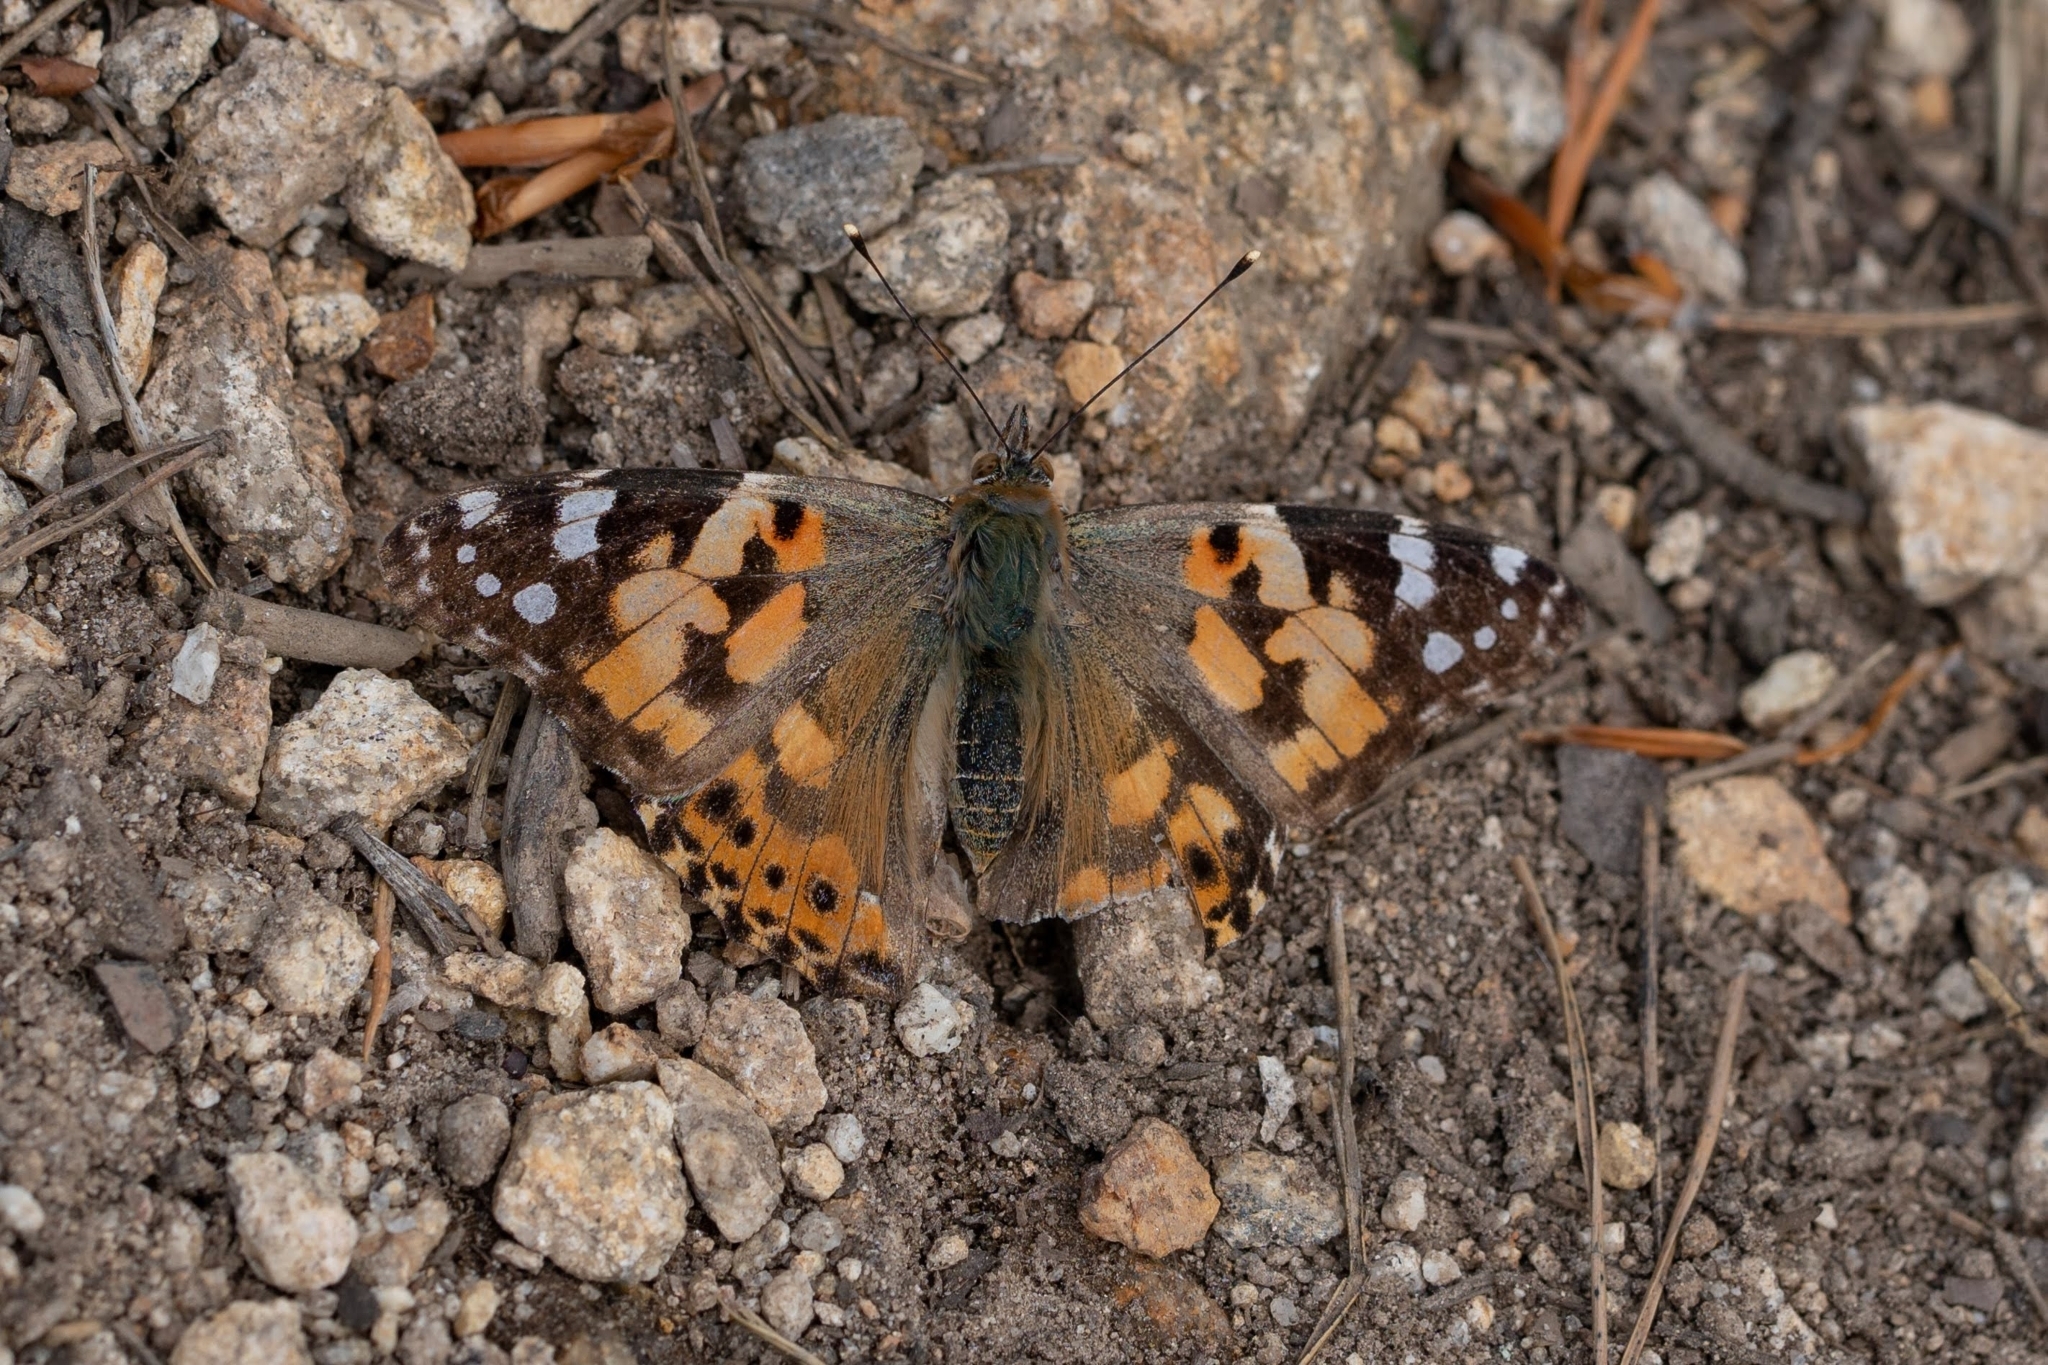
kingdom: Animalia
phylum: Arthropoda
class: Insecta
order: Lepidoptera
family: Nymphalidae
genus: Vanessa
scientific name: Vanessa cardui
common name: Painted lady
